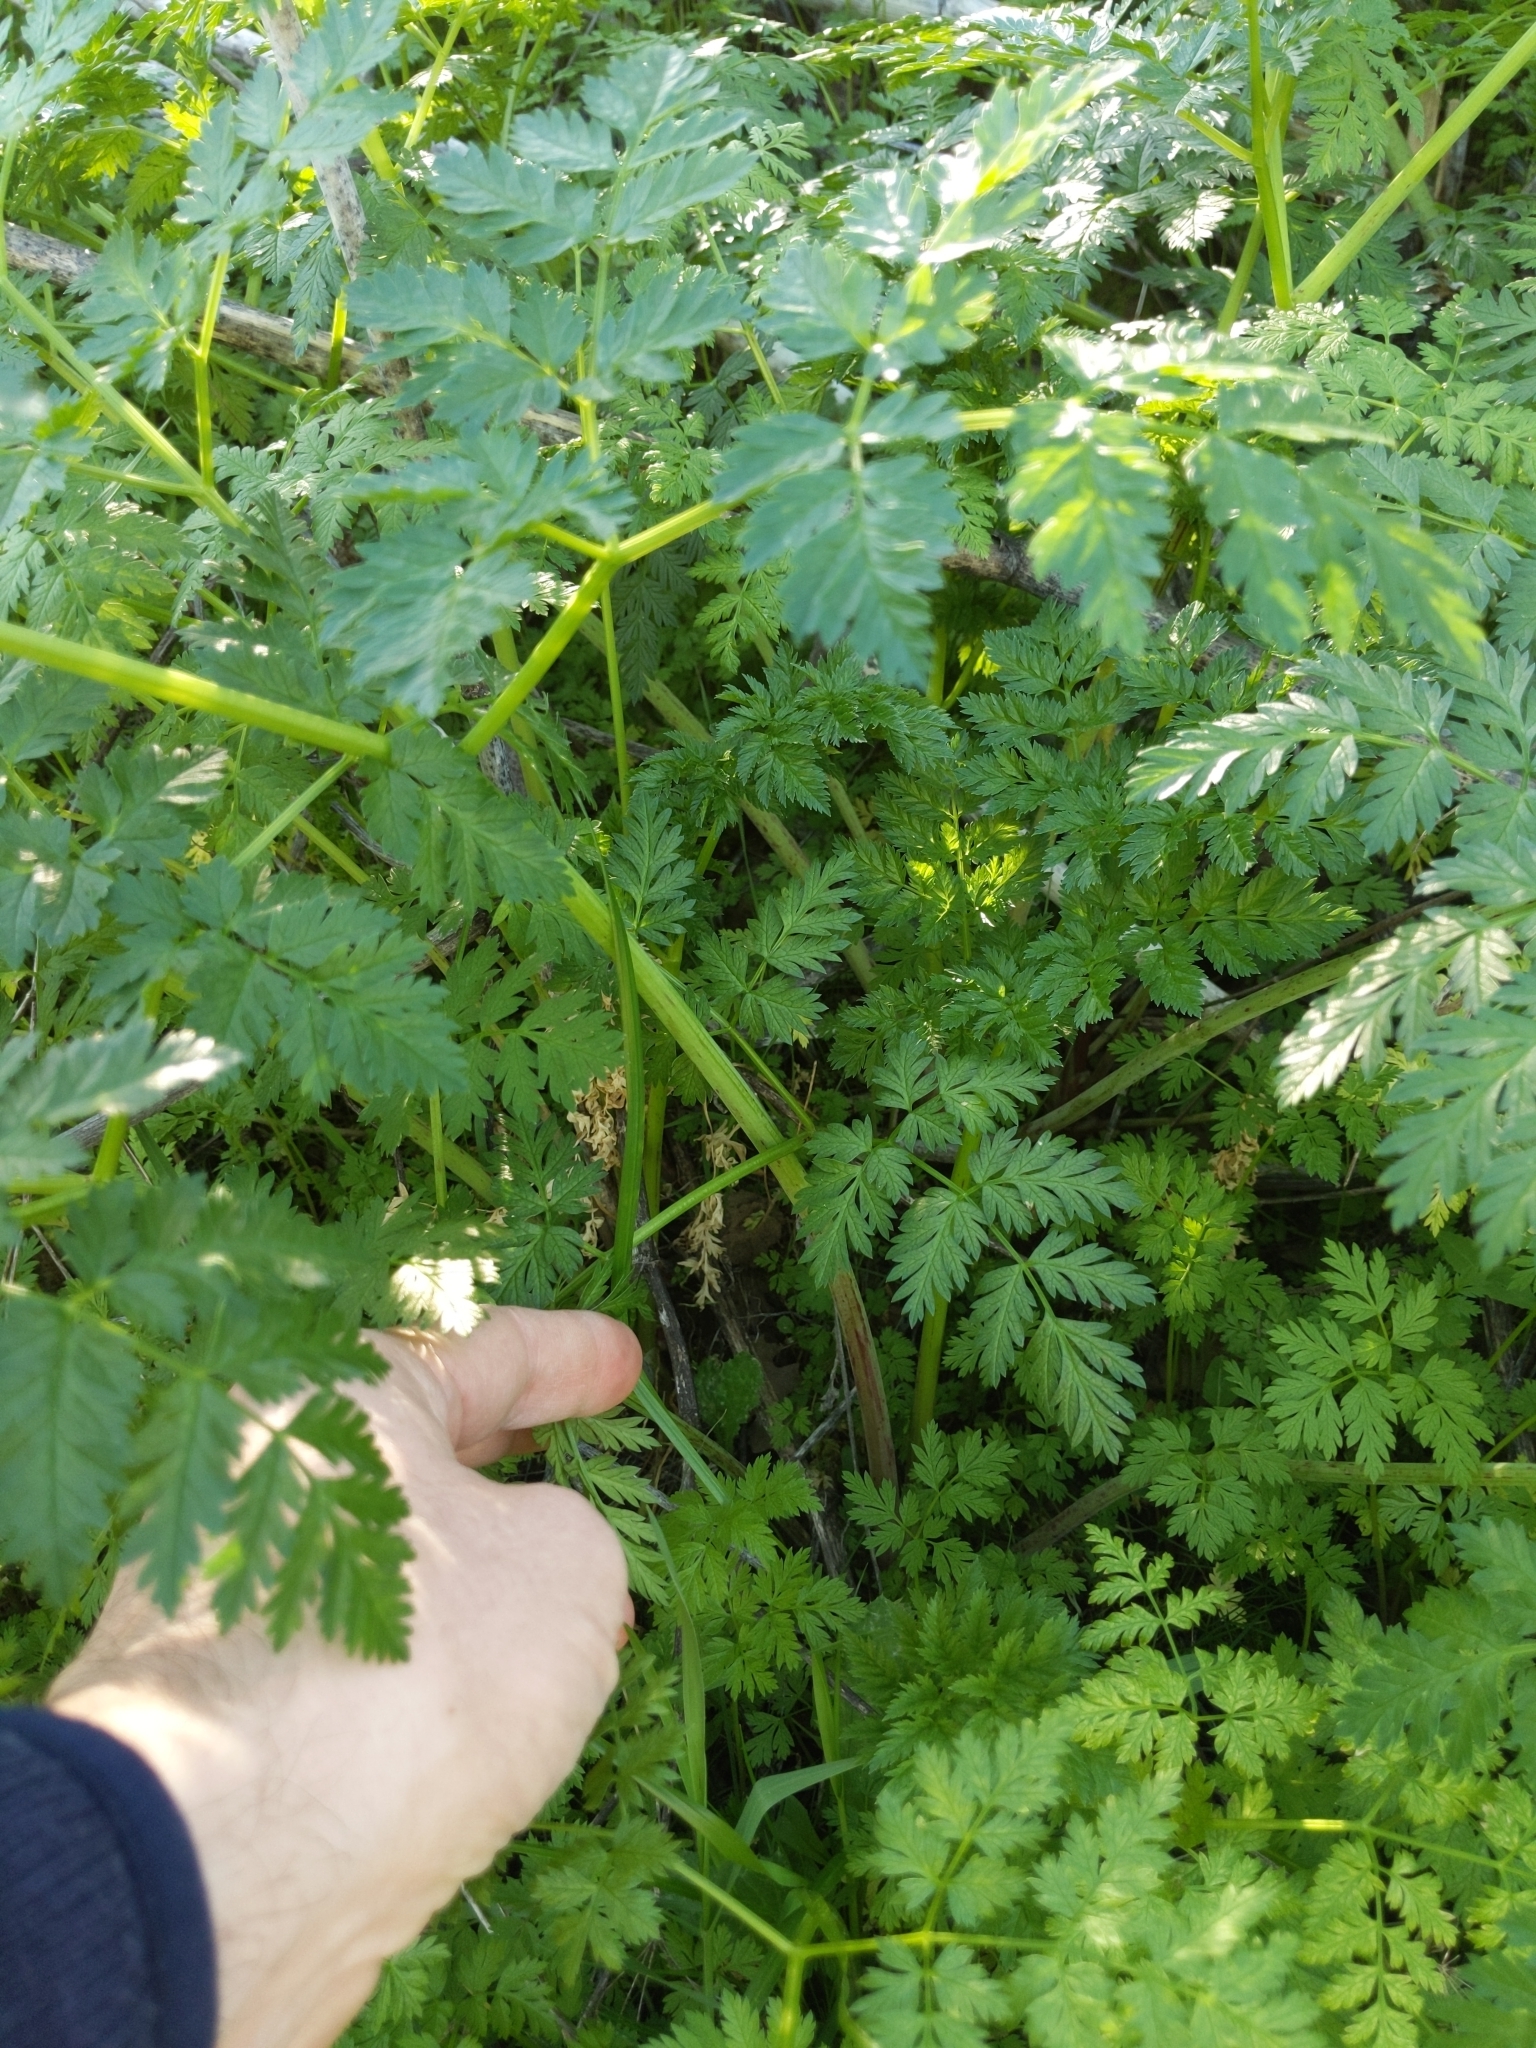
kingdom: Plantae
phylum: Tracheophyta
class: Magnoliopsida
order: Apiales
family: Apiaceae
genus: Conium
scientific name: Conium maculatum
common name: Hemlock
